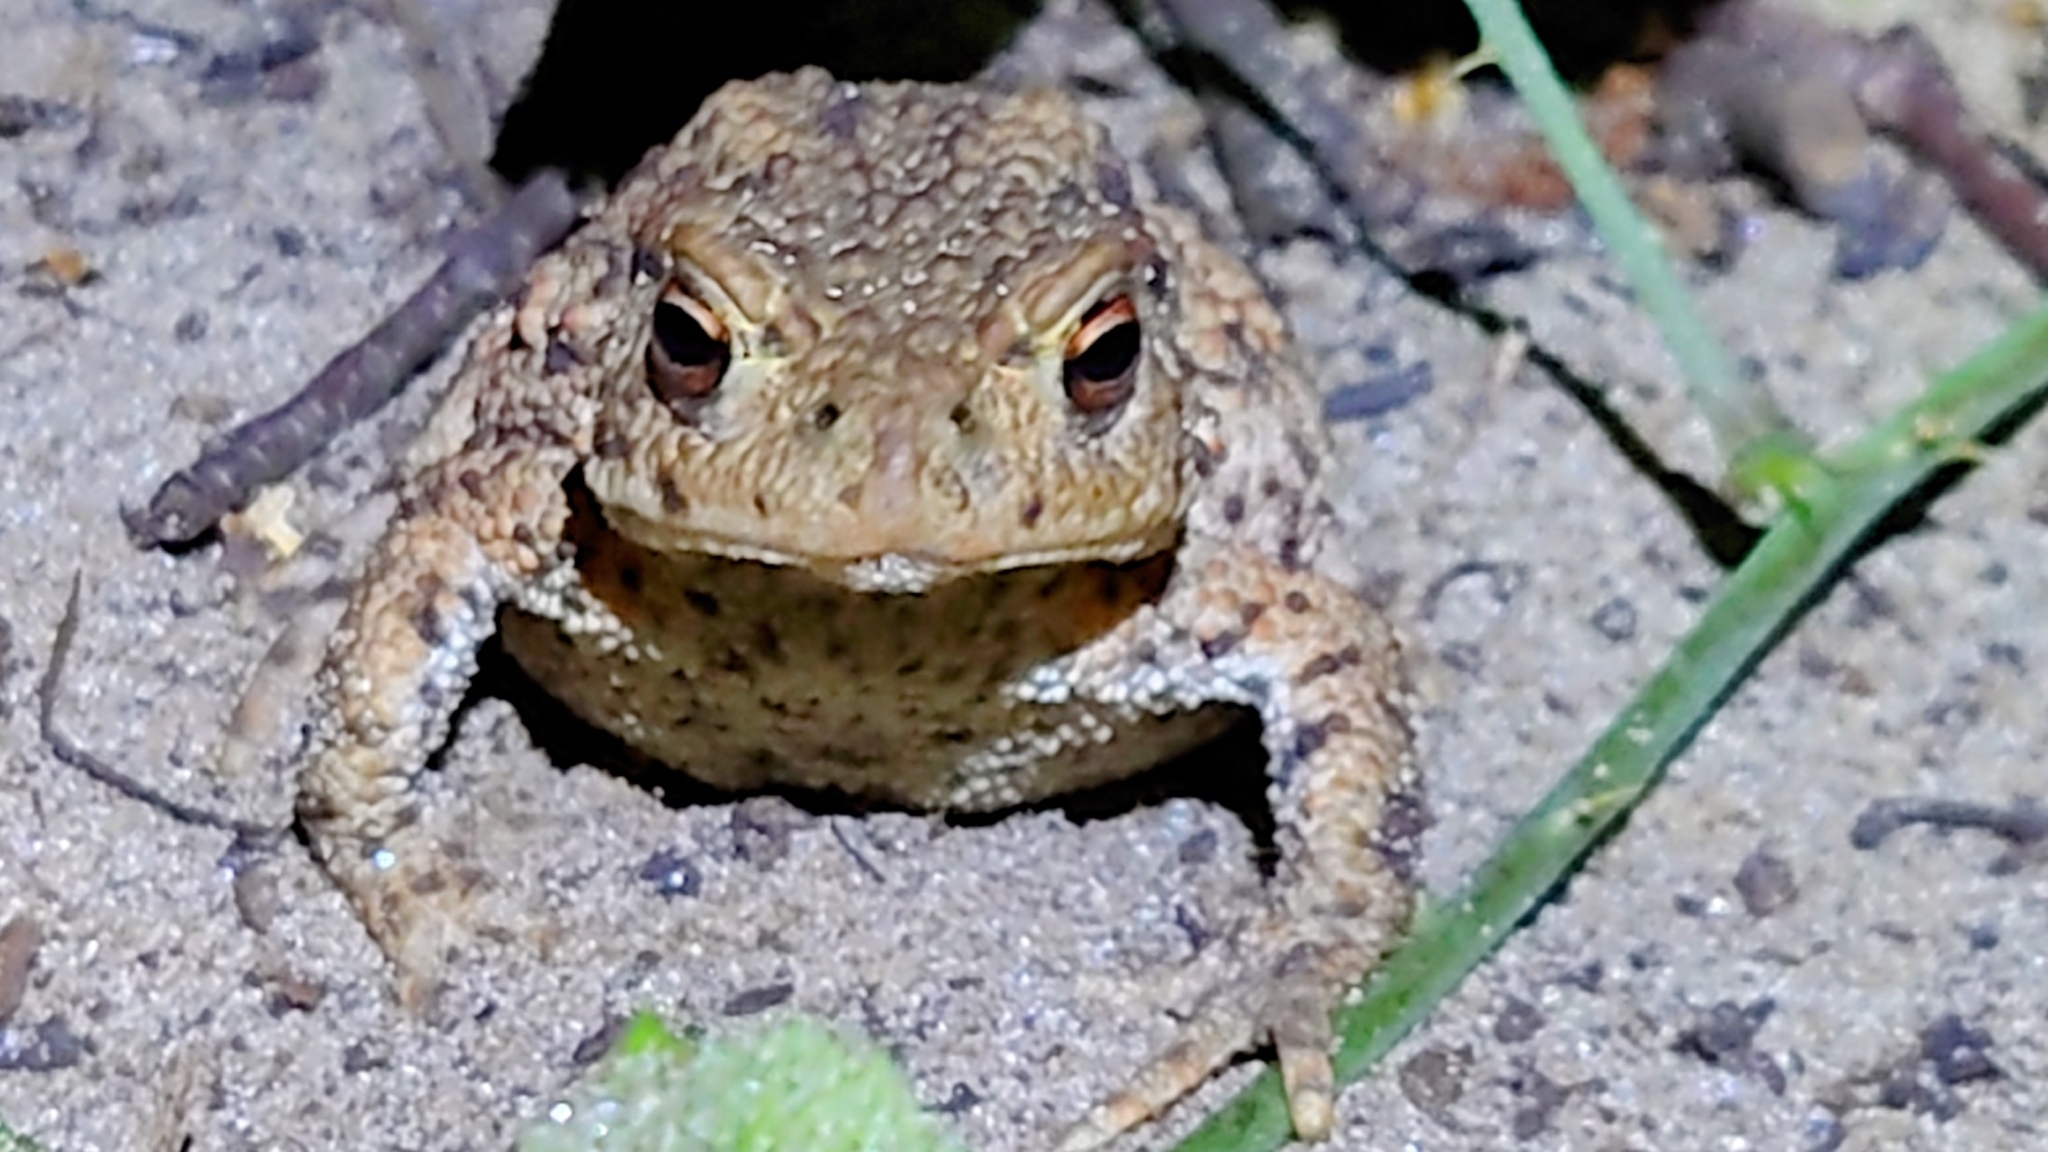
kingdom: Animalia
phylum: Chordata
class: Amphibia
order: Anura
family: Bufonidae
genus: Bufo
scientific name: Bufo bufo
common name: Common toad
